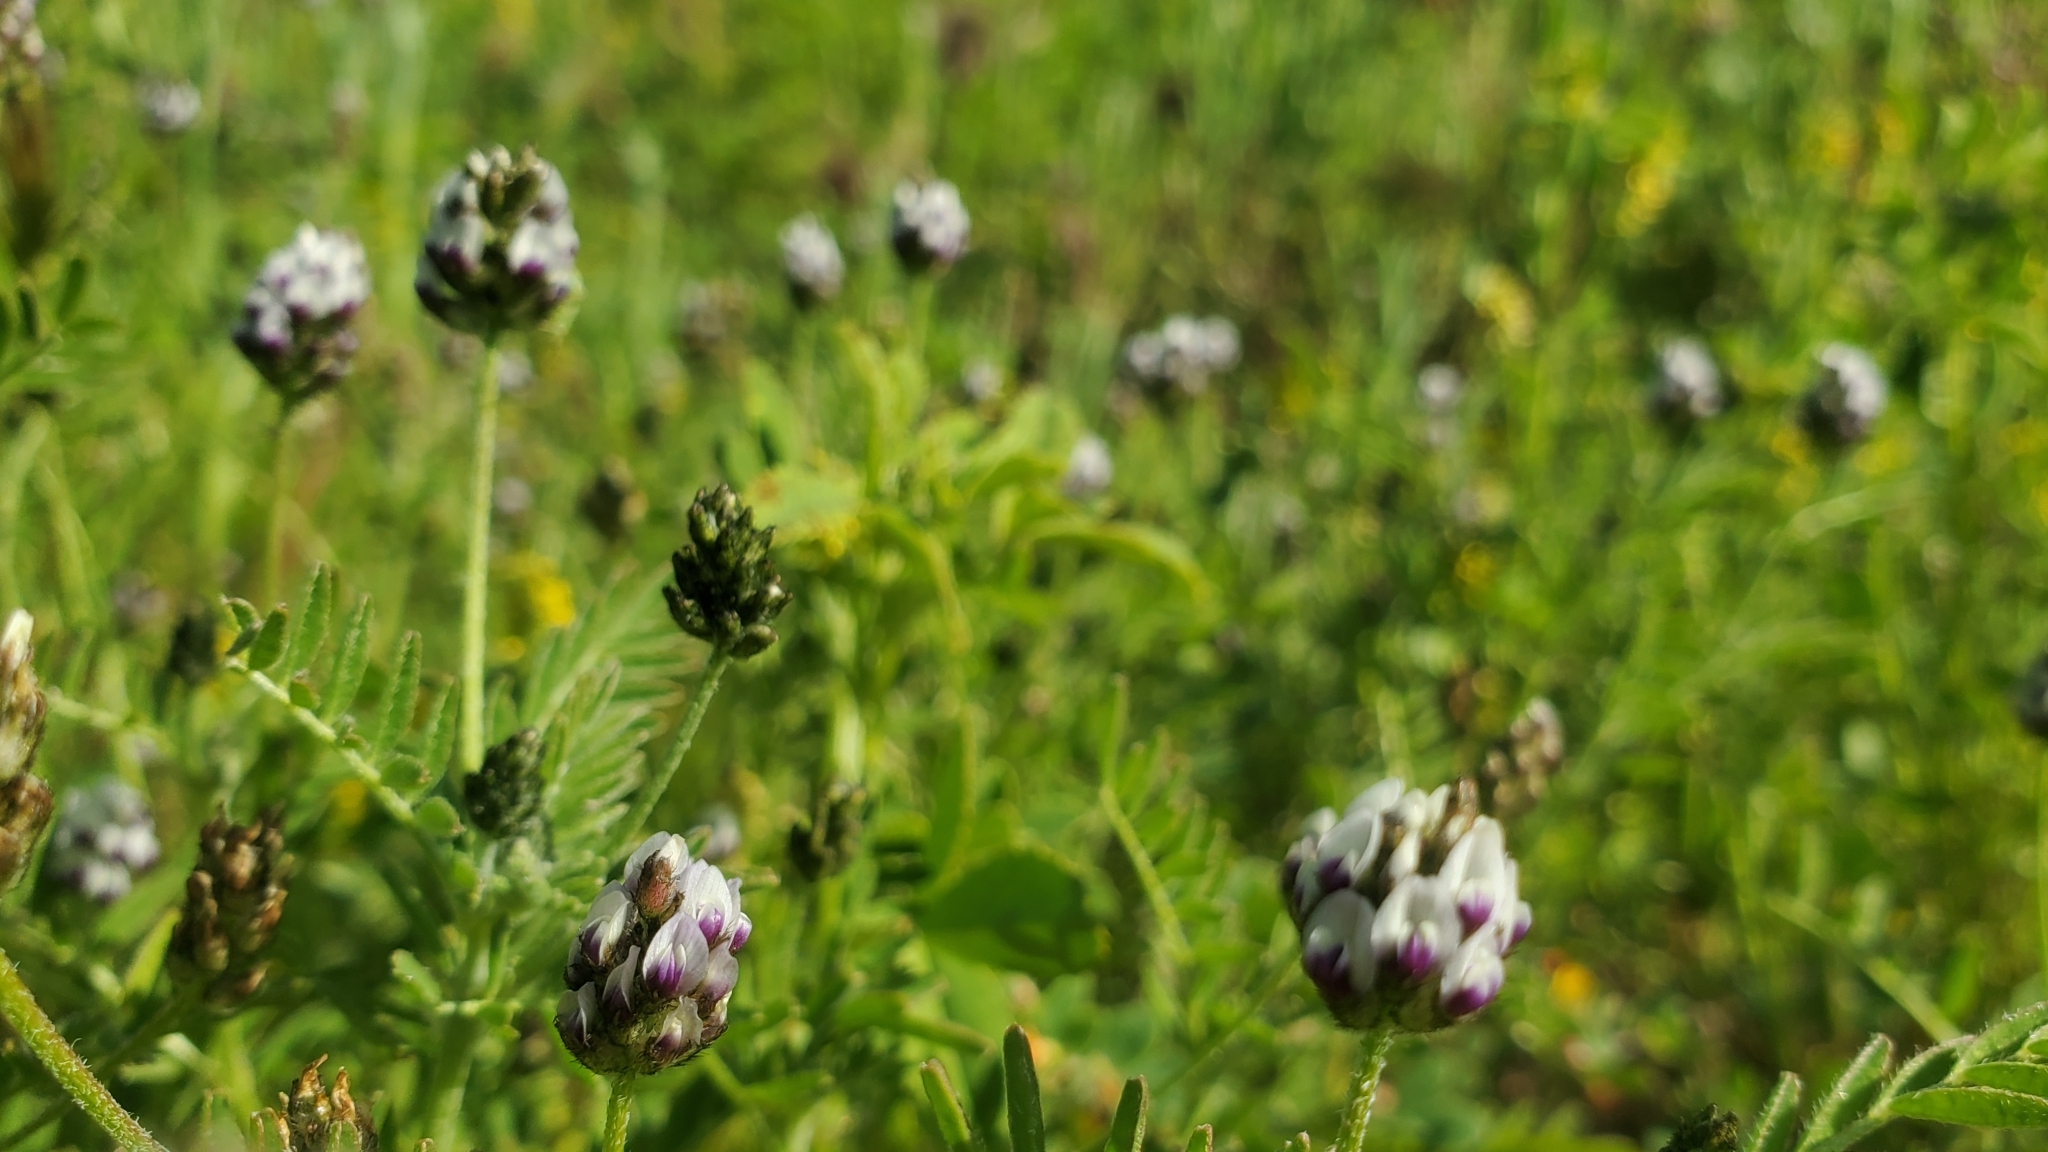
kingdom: Plantae
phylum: Tracheophyta
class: Magnoliopsida
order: Fabales
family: Fabaceae
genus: Astragalus
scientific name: Astragalus didymocarpus
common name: Dwarf white milkvetch
